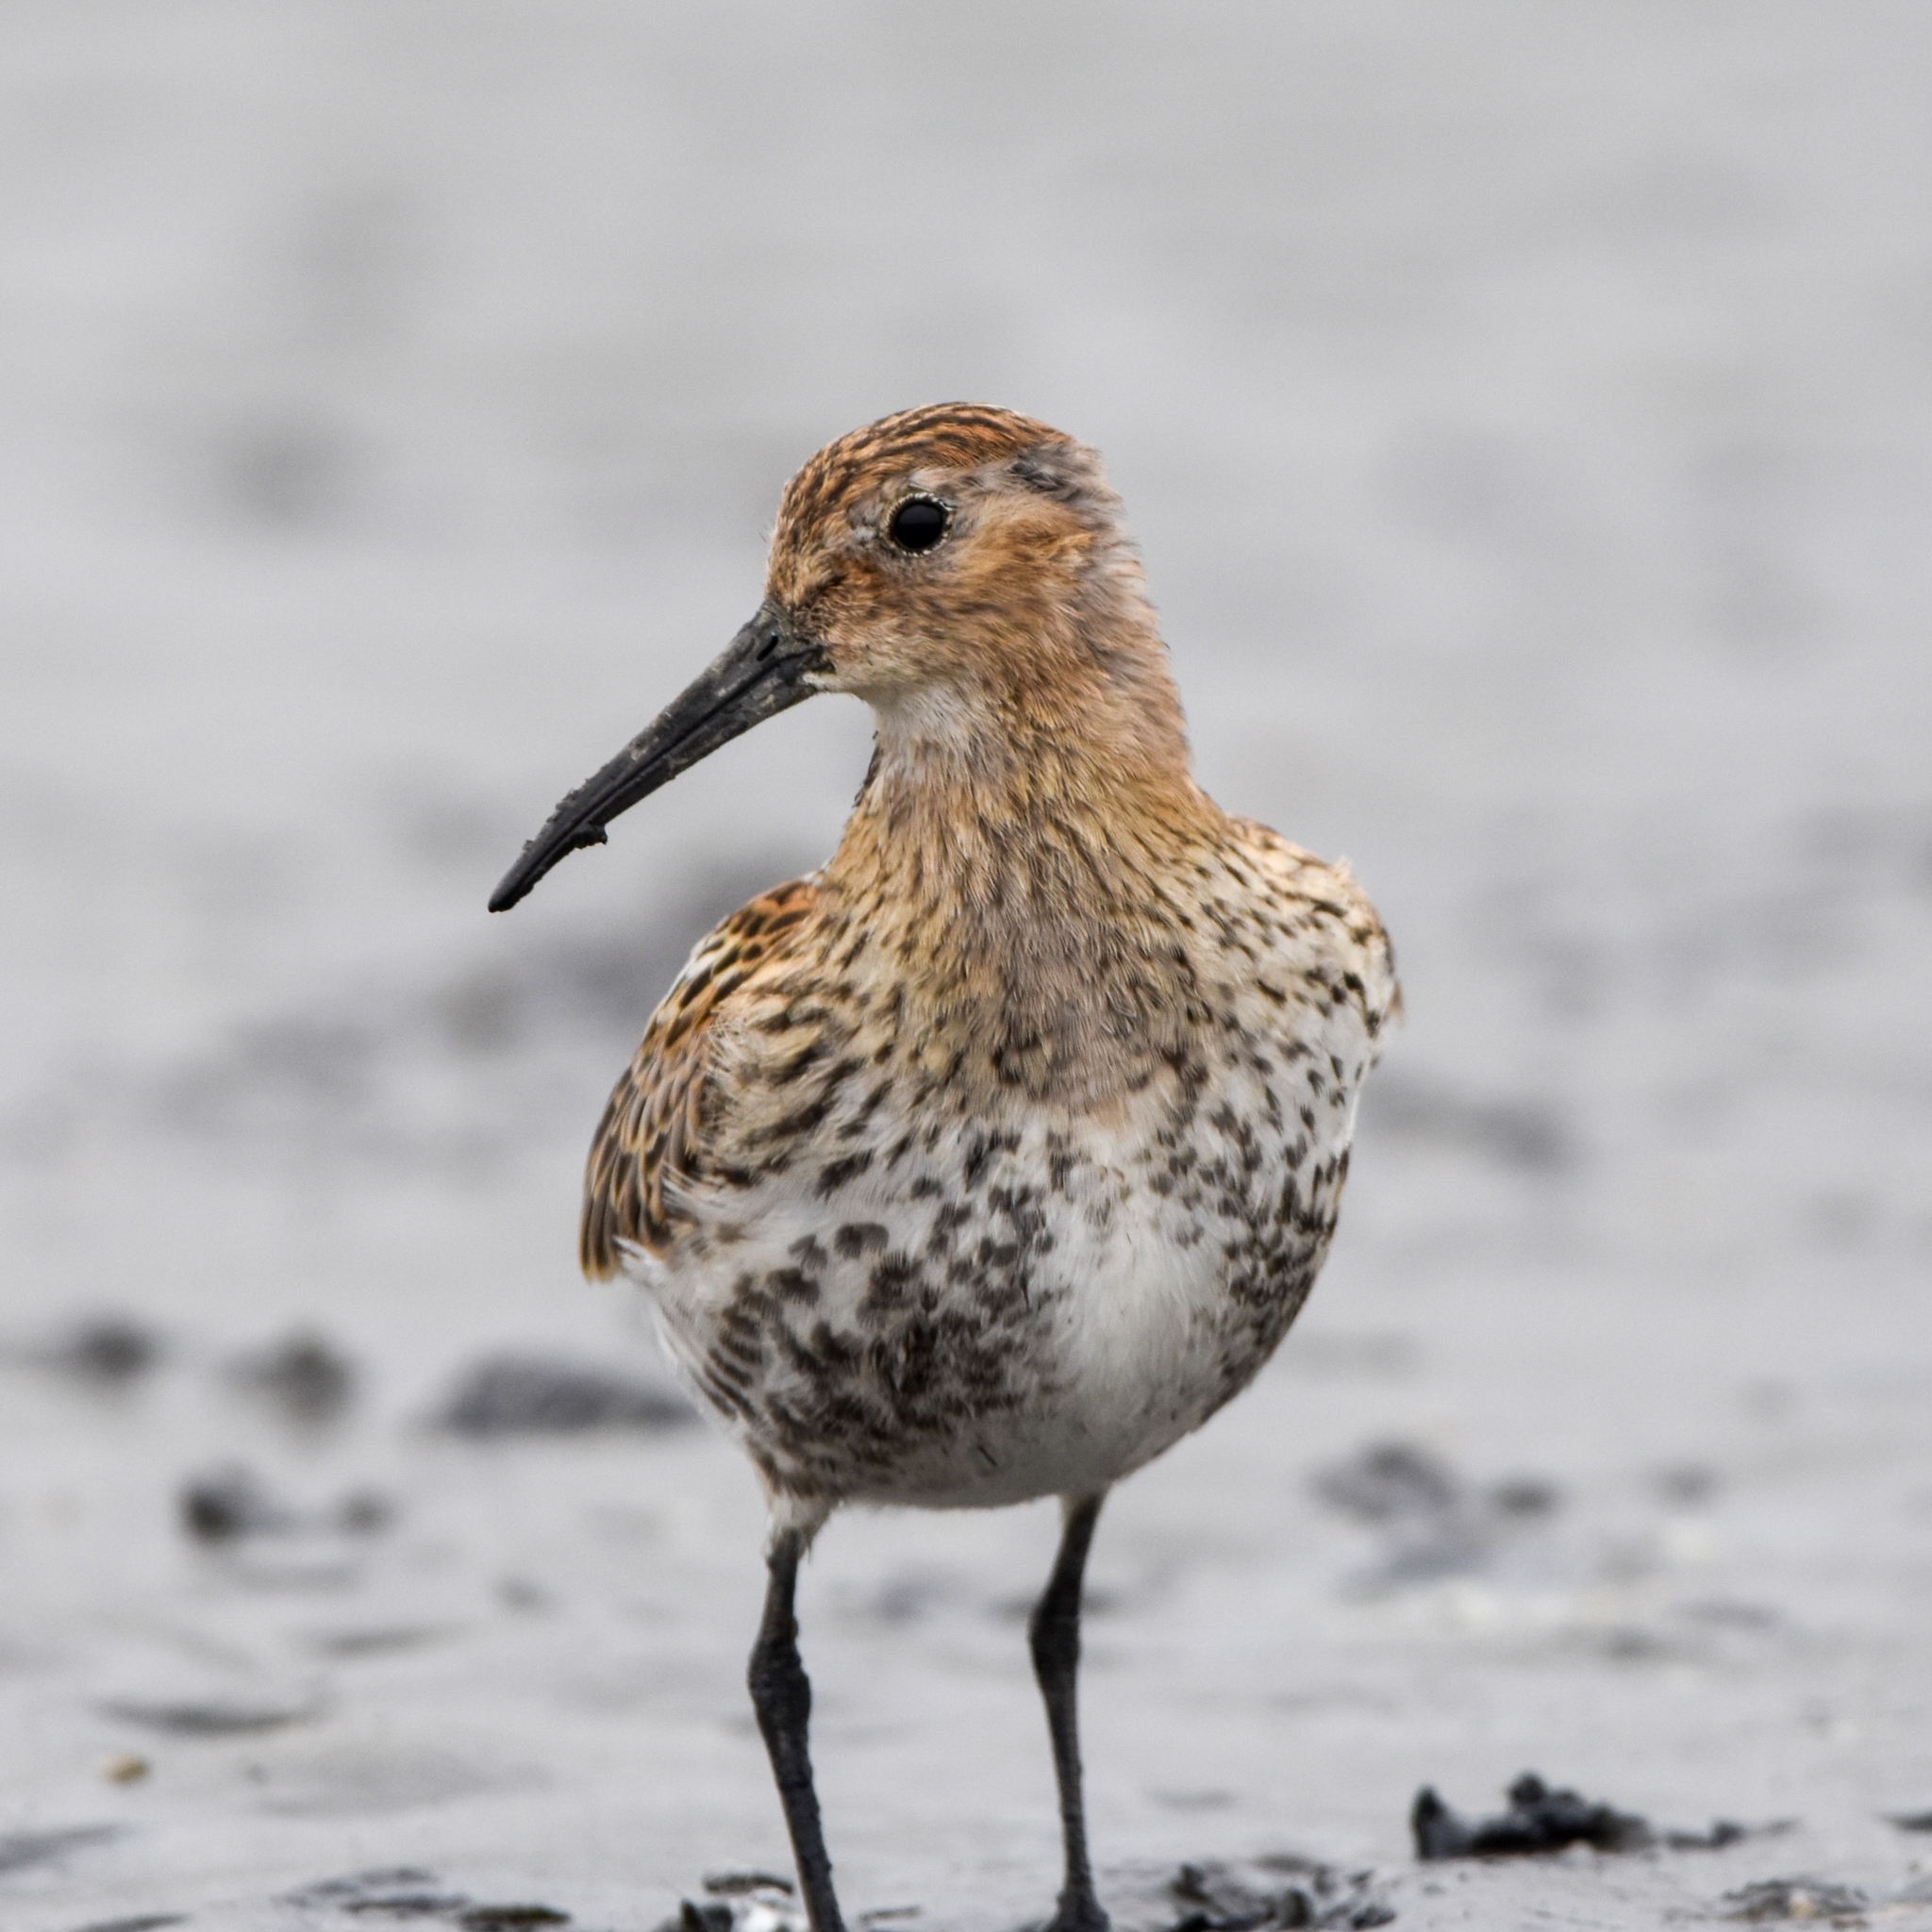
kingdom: Animalia
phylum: Chordata
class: Aves
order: Charadriiformes
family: Scolopacidae
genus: Calidris
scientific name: Calidris alpina
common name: Dunlin
